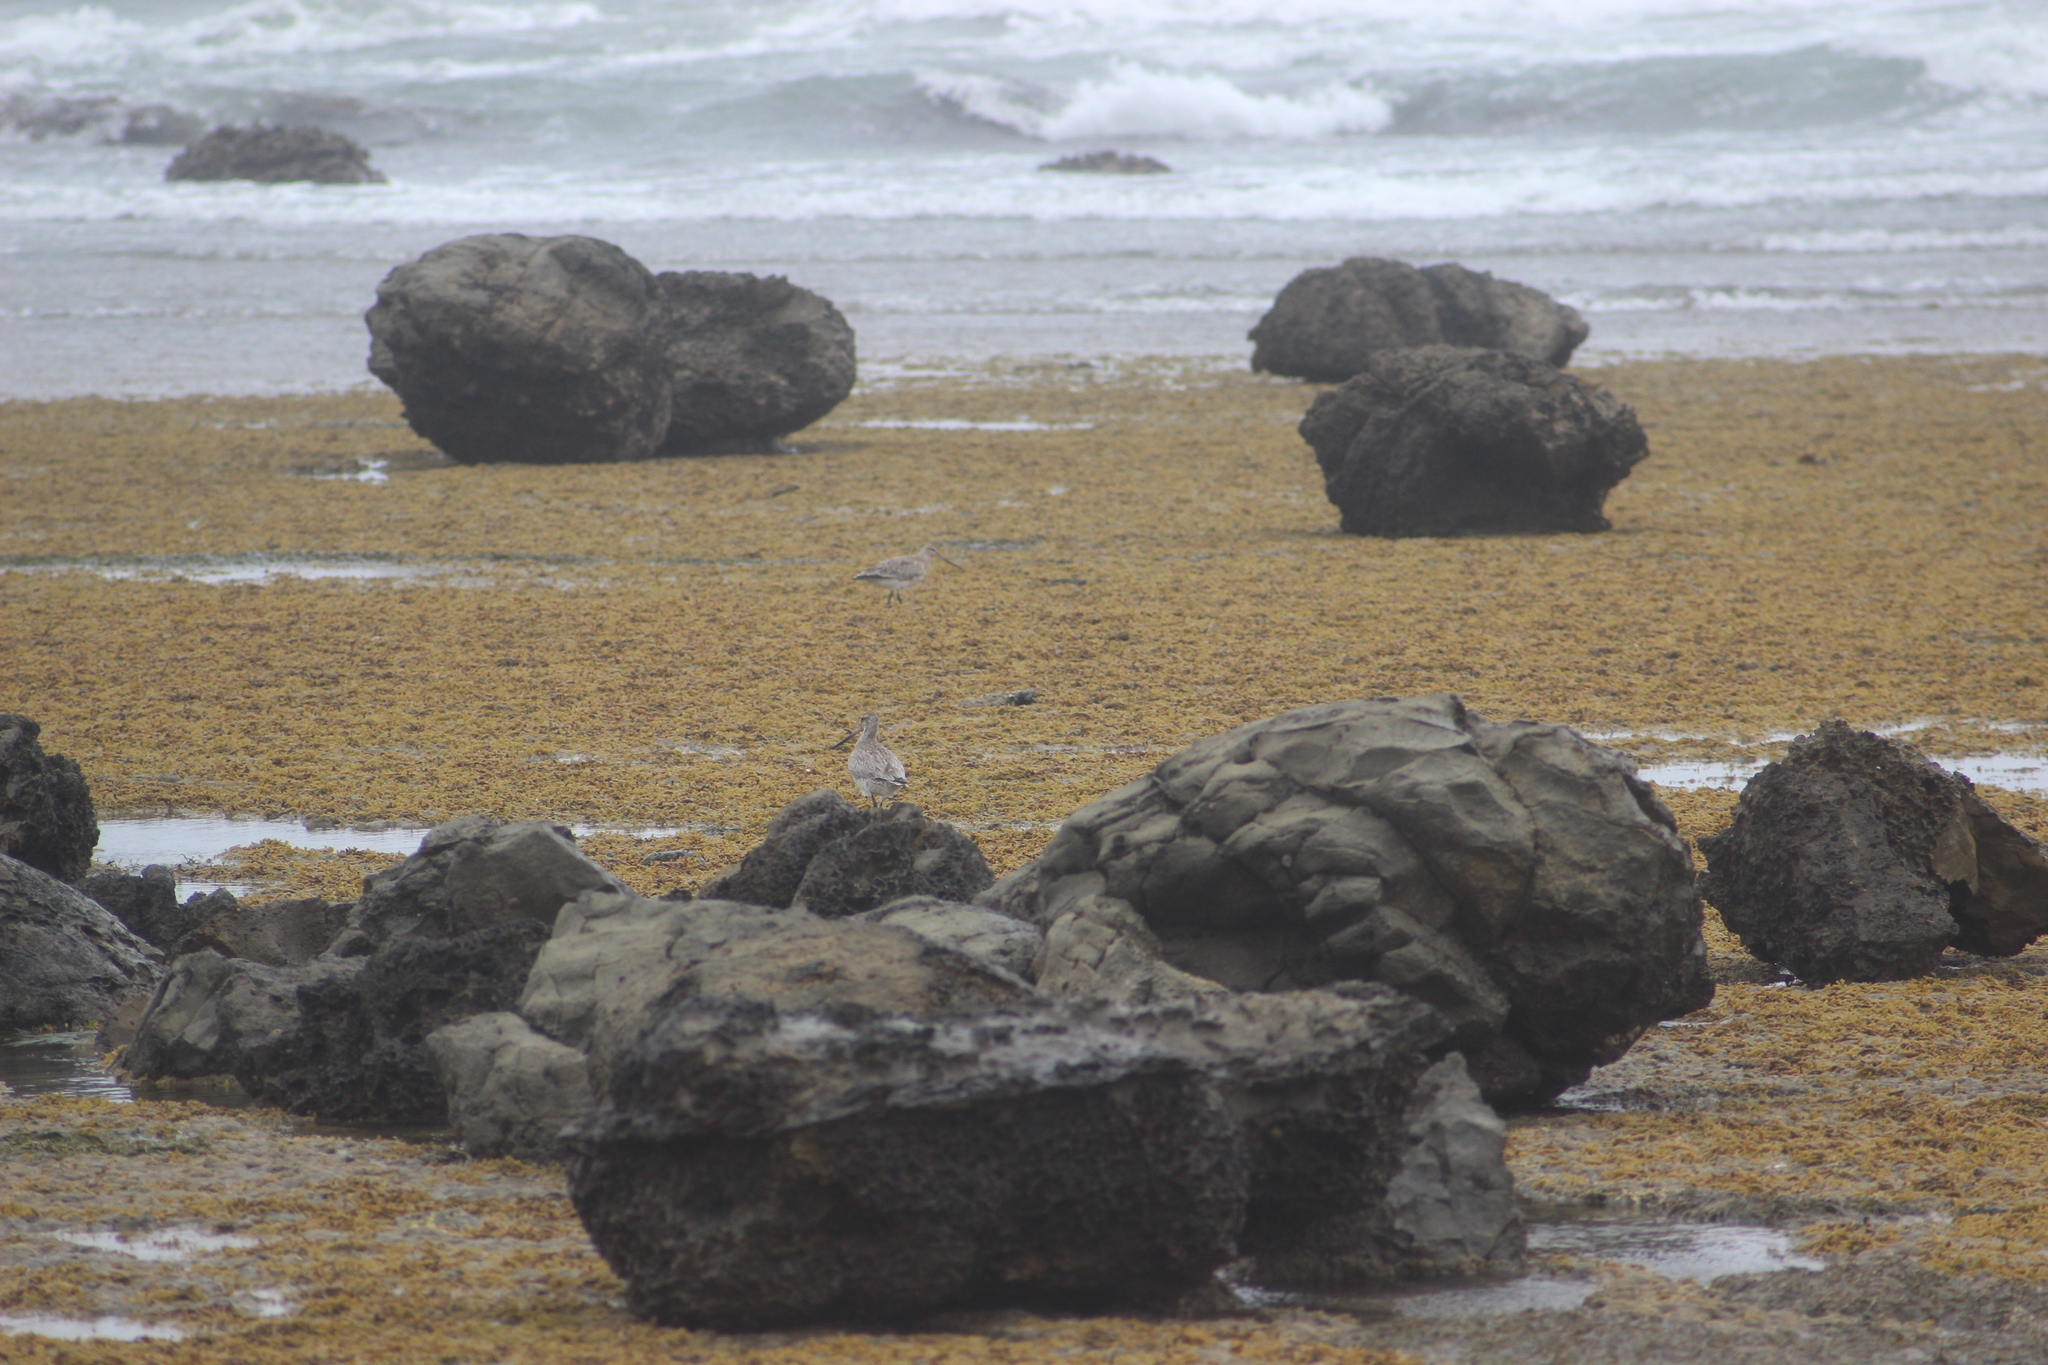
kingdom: Animalia
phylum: Chordata
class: Aves
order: Charadriiformes
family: Scolopacidae
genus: Limosa
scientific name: Limosa lapponica
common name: Bar-tailed godwit
